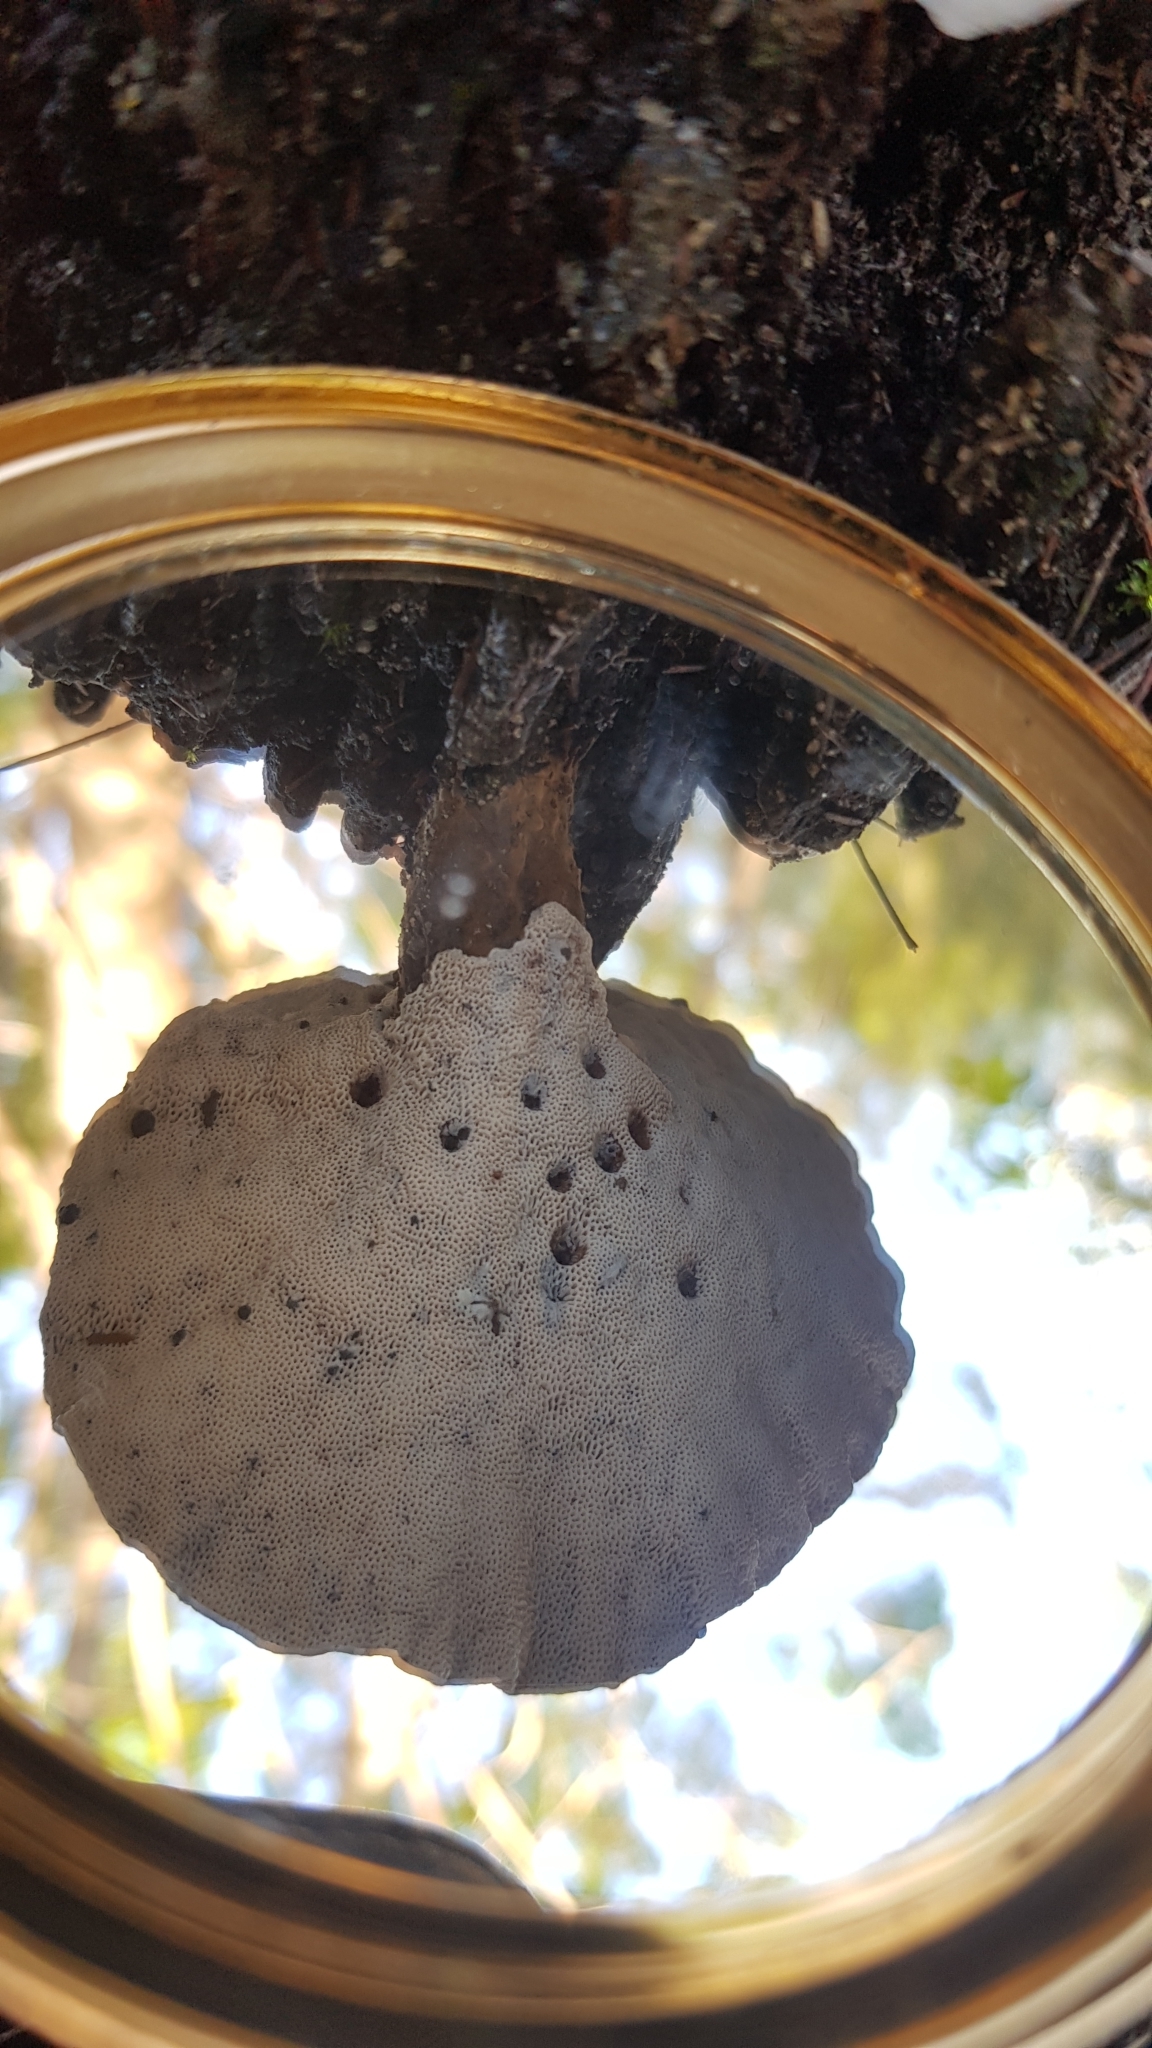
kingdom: Fungi
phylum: Basidiomycota
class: Agaricomycetes
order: Polyporales
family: Ganodermataceae
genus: Sanguinoderma
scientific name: Sanguinoderma rude
